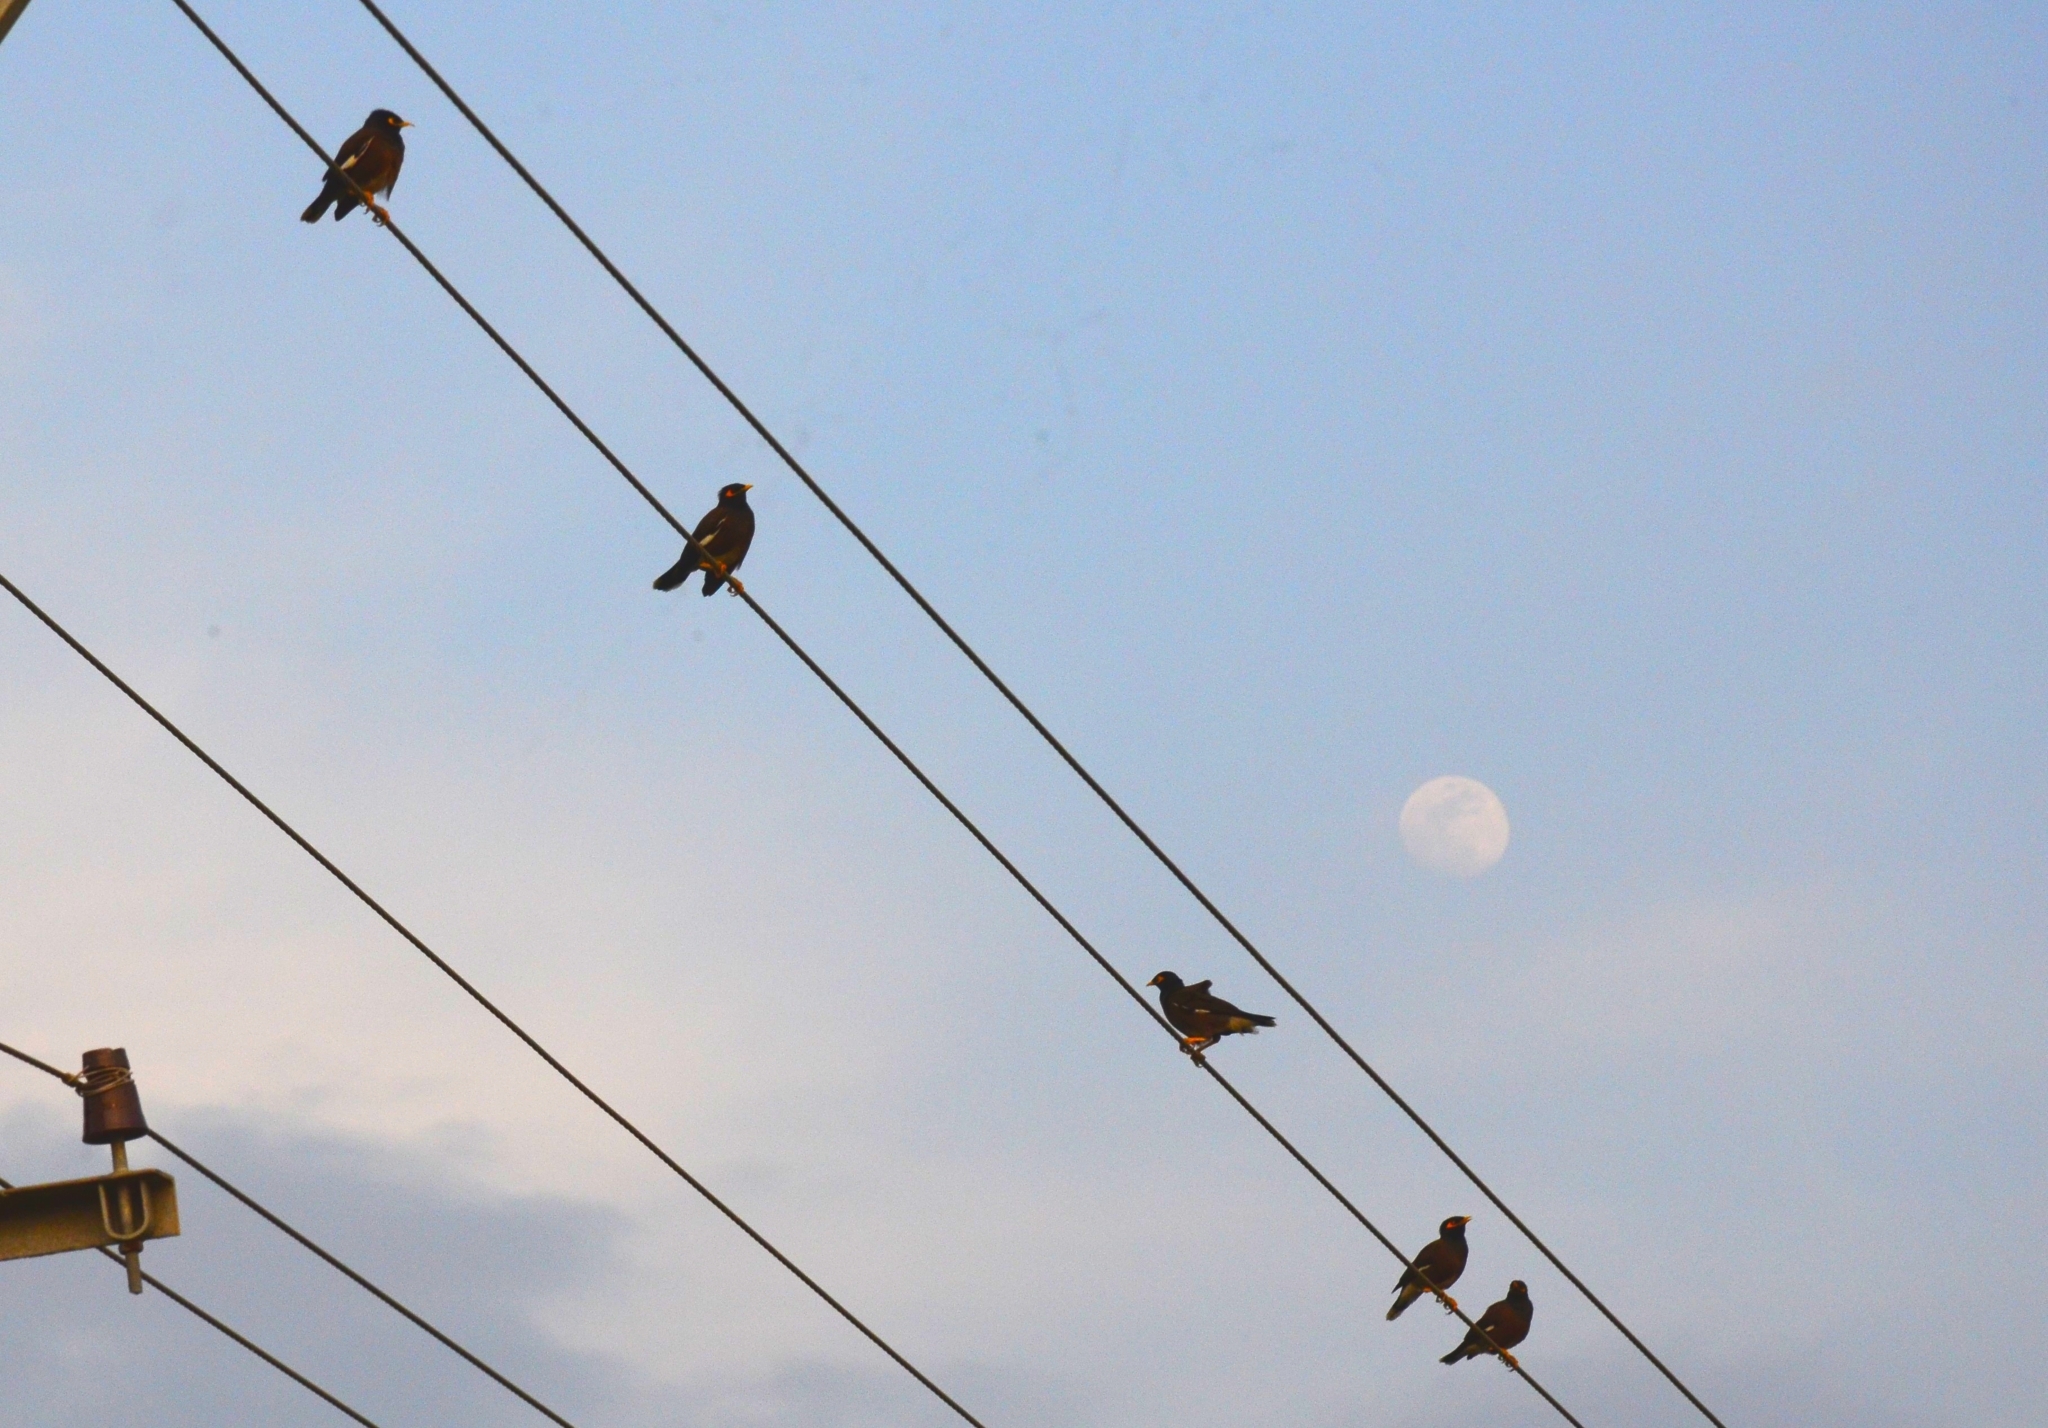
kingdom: Animalia
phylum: Chordata
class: Aves
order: Passeriformes
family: Sturnidae
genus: Acridotheres
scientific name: Acridotheres tristis
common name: Common myna
